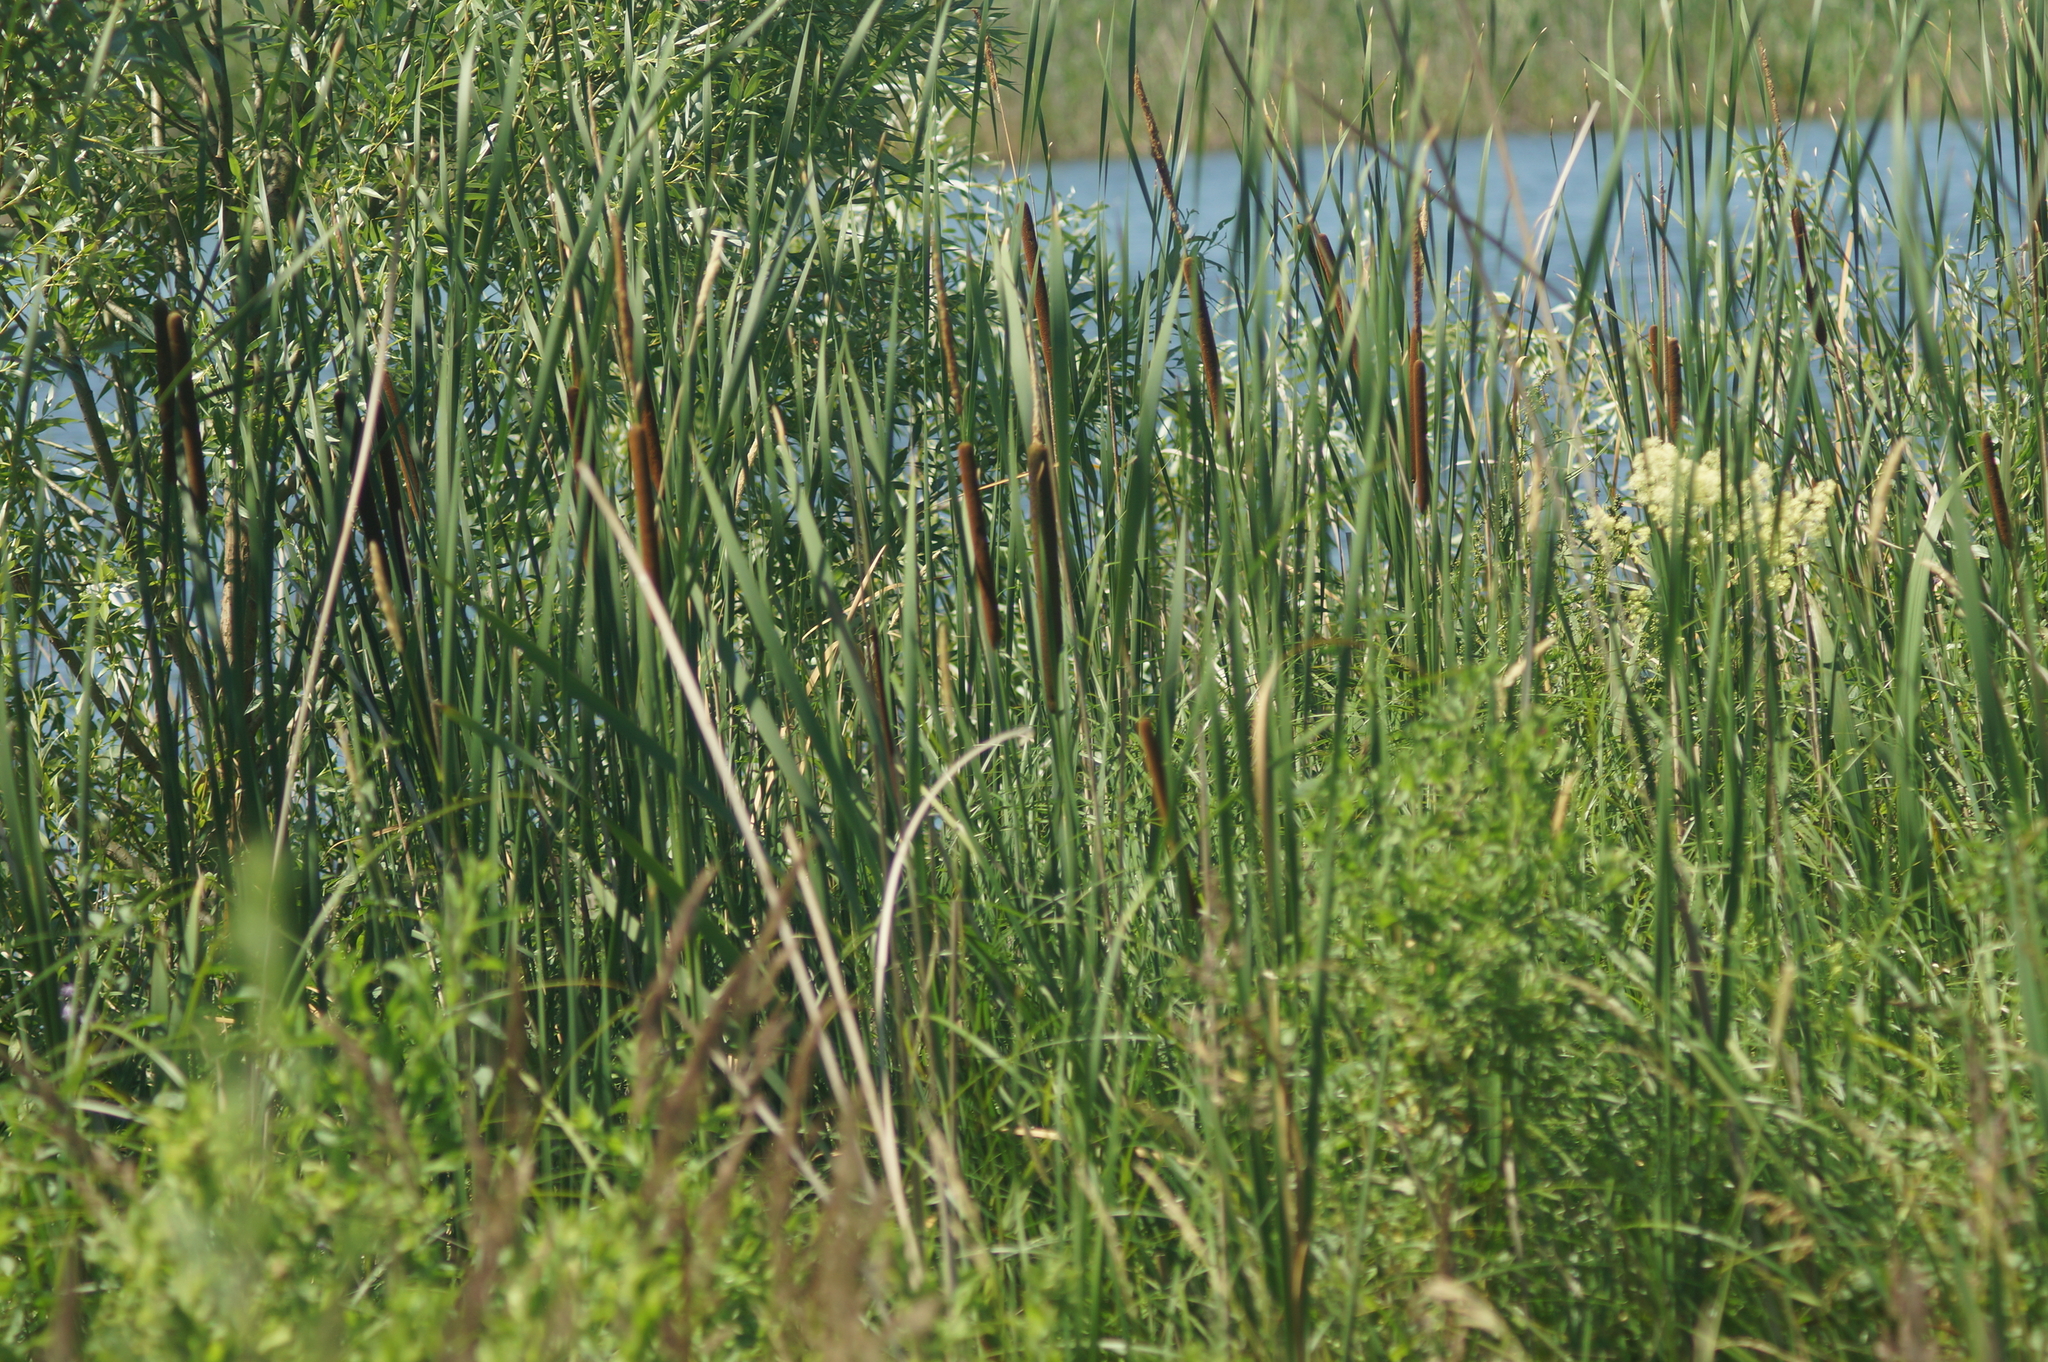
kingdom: Plantae
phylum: Tracheophyta
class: Liliopsida
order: Poales
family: Typhaceae
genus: Typha
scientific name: Typha angustifolia
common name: Lesser bulrush
